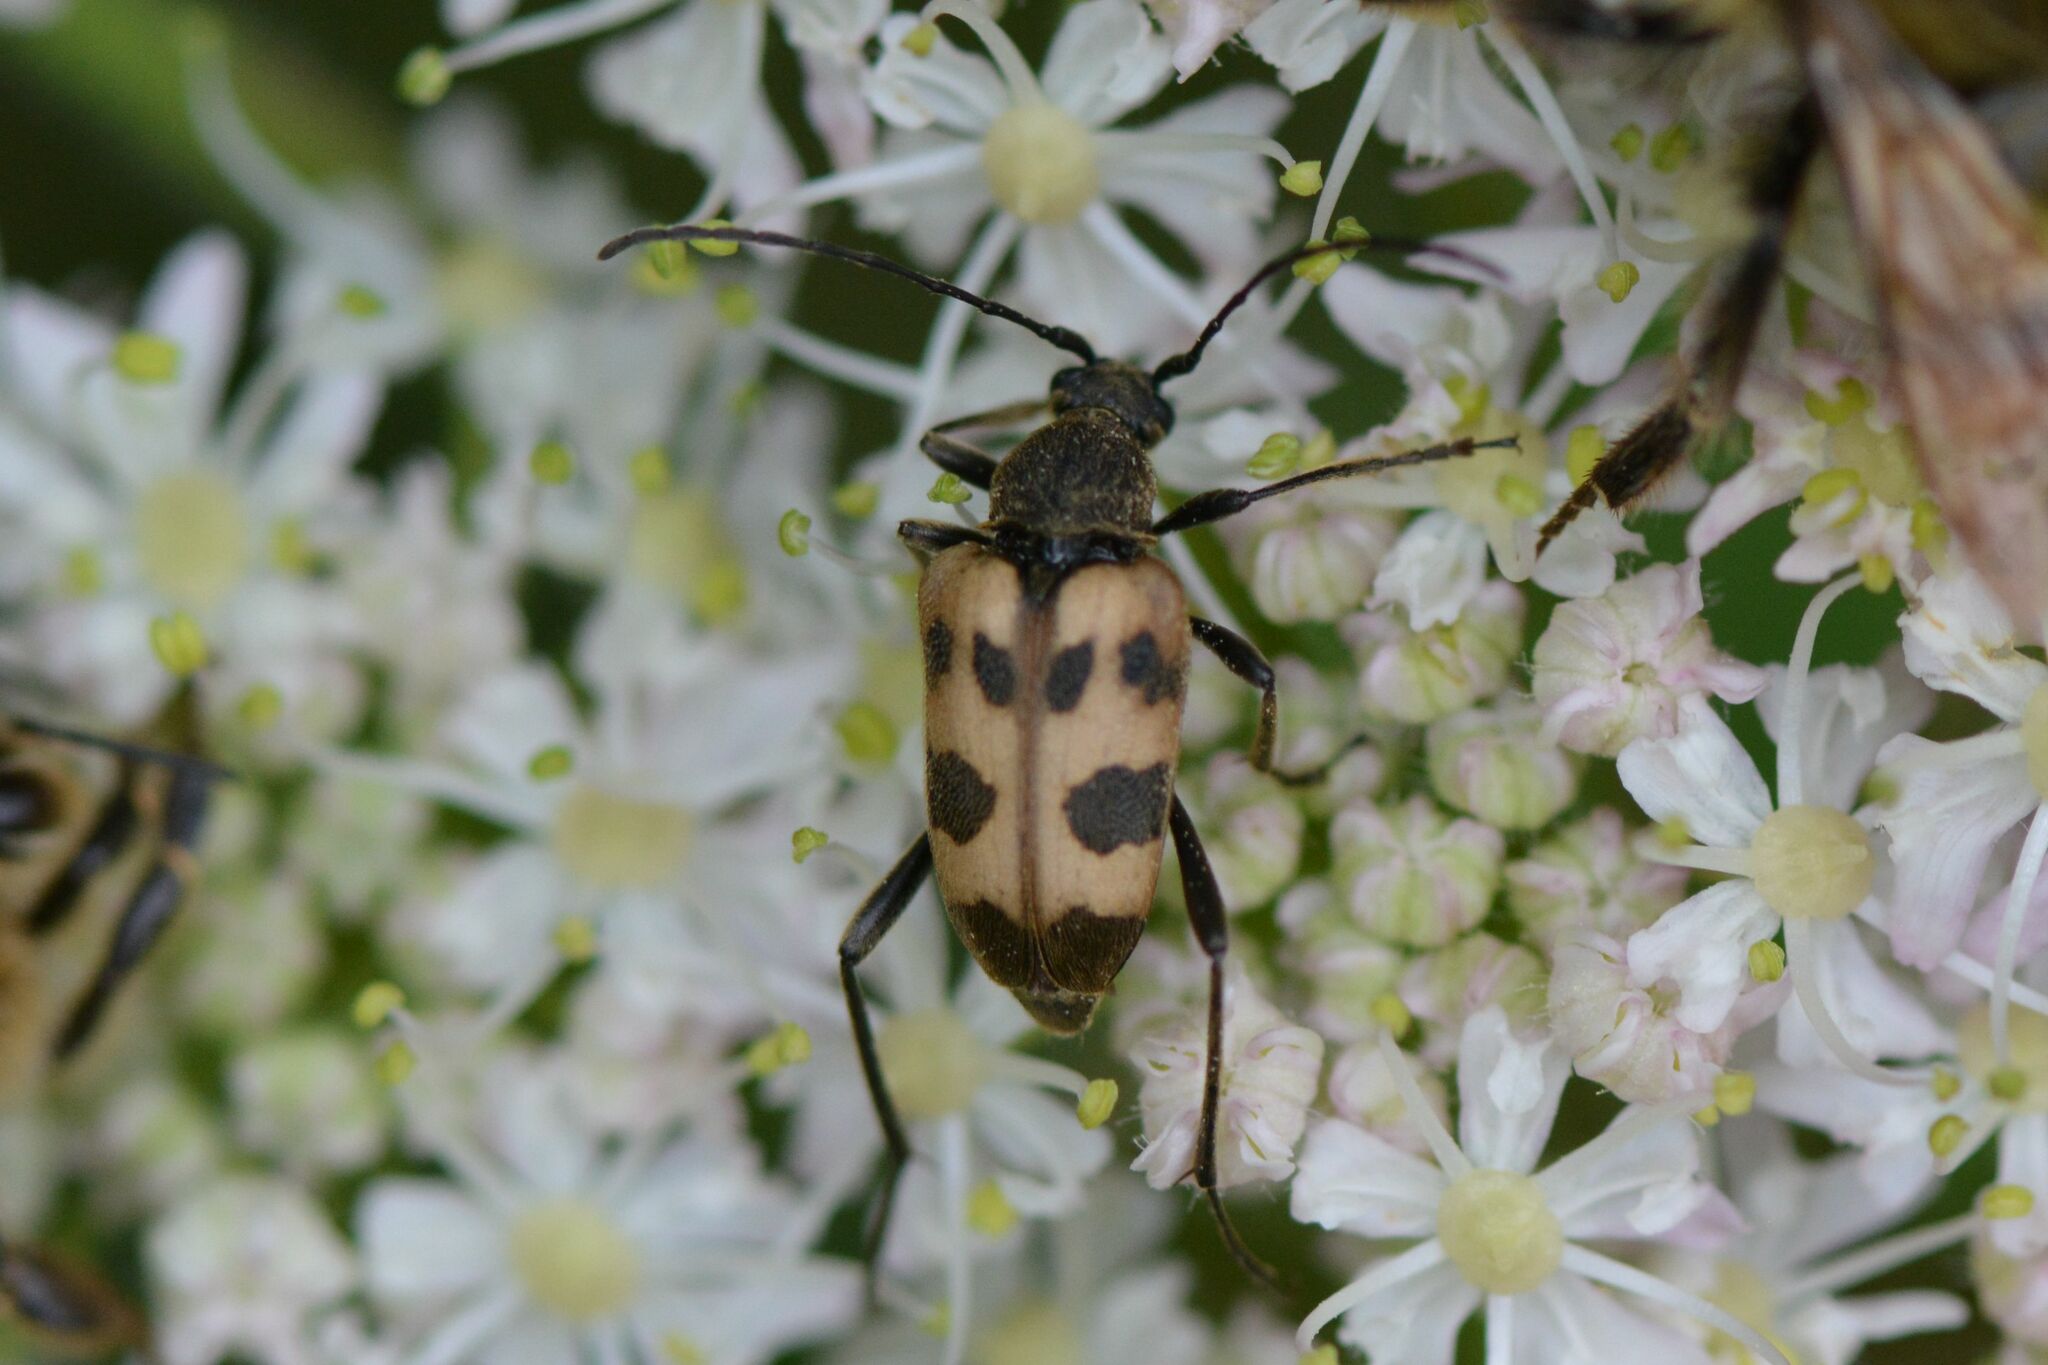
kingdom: Animalia
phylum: Arthropoda
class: Insecta
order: Coleoptera
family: Cerambycidae
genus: Pachytodes
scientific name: Pachytodes cerambyciformis
